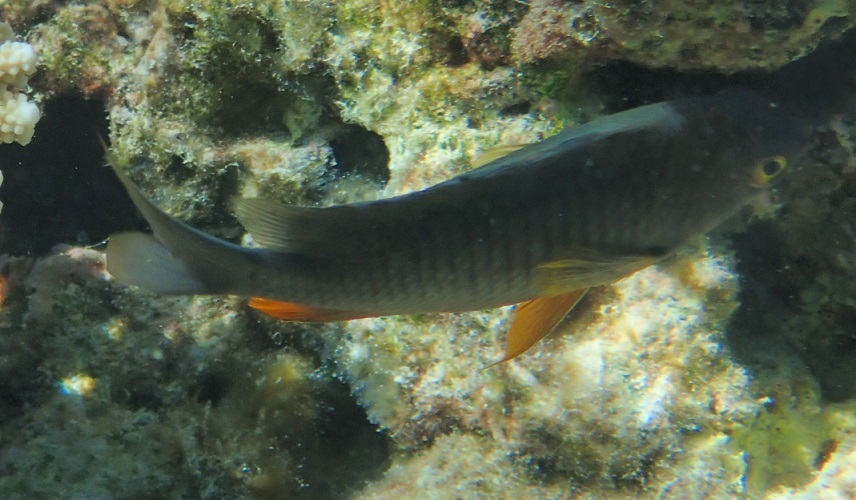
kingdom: Animalia
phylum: Chordata
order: Perciformes
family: Pomacentridae
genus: Stegastes
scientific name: Stegastes gascoynei
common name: Coral sea gregory
